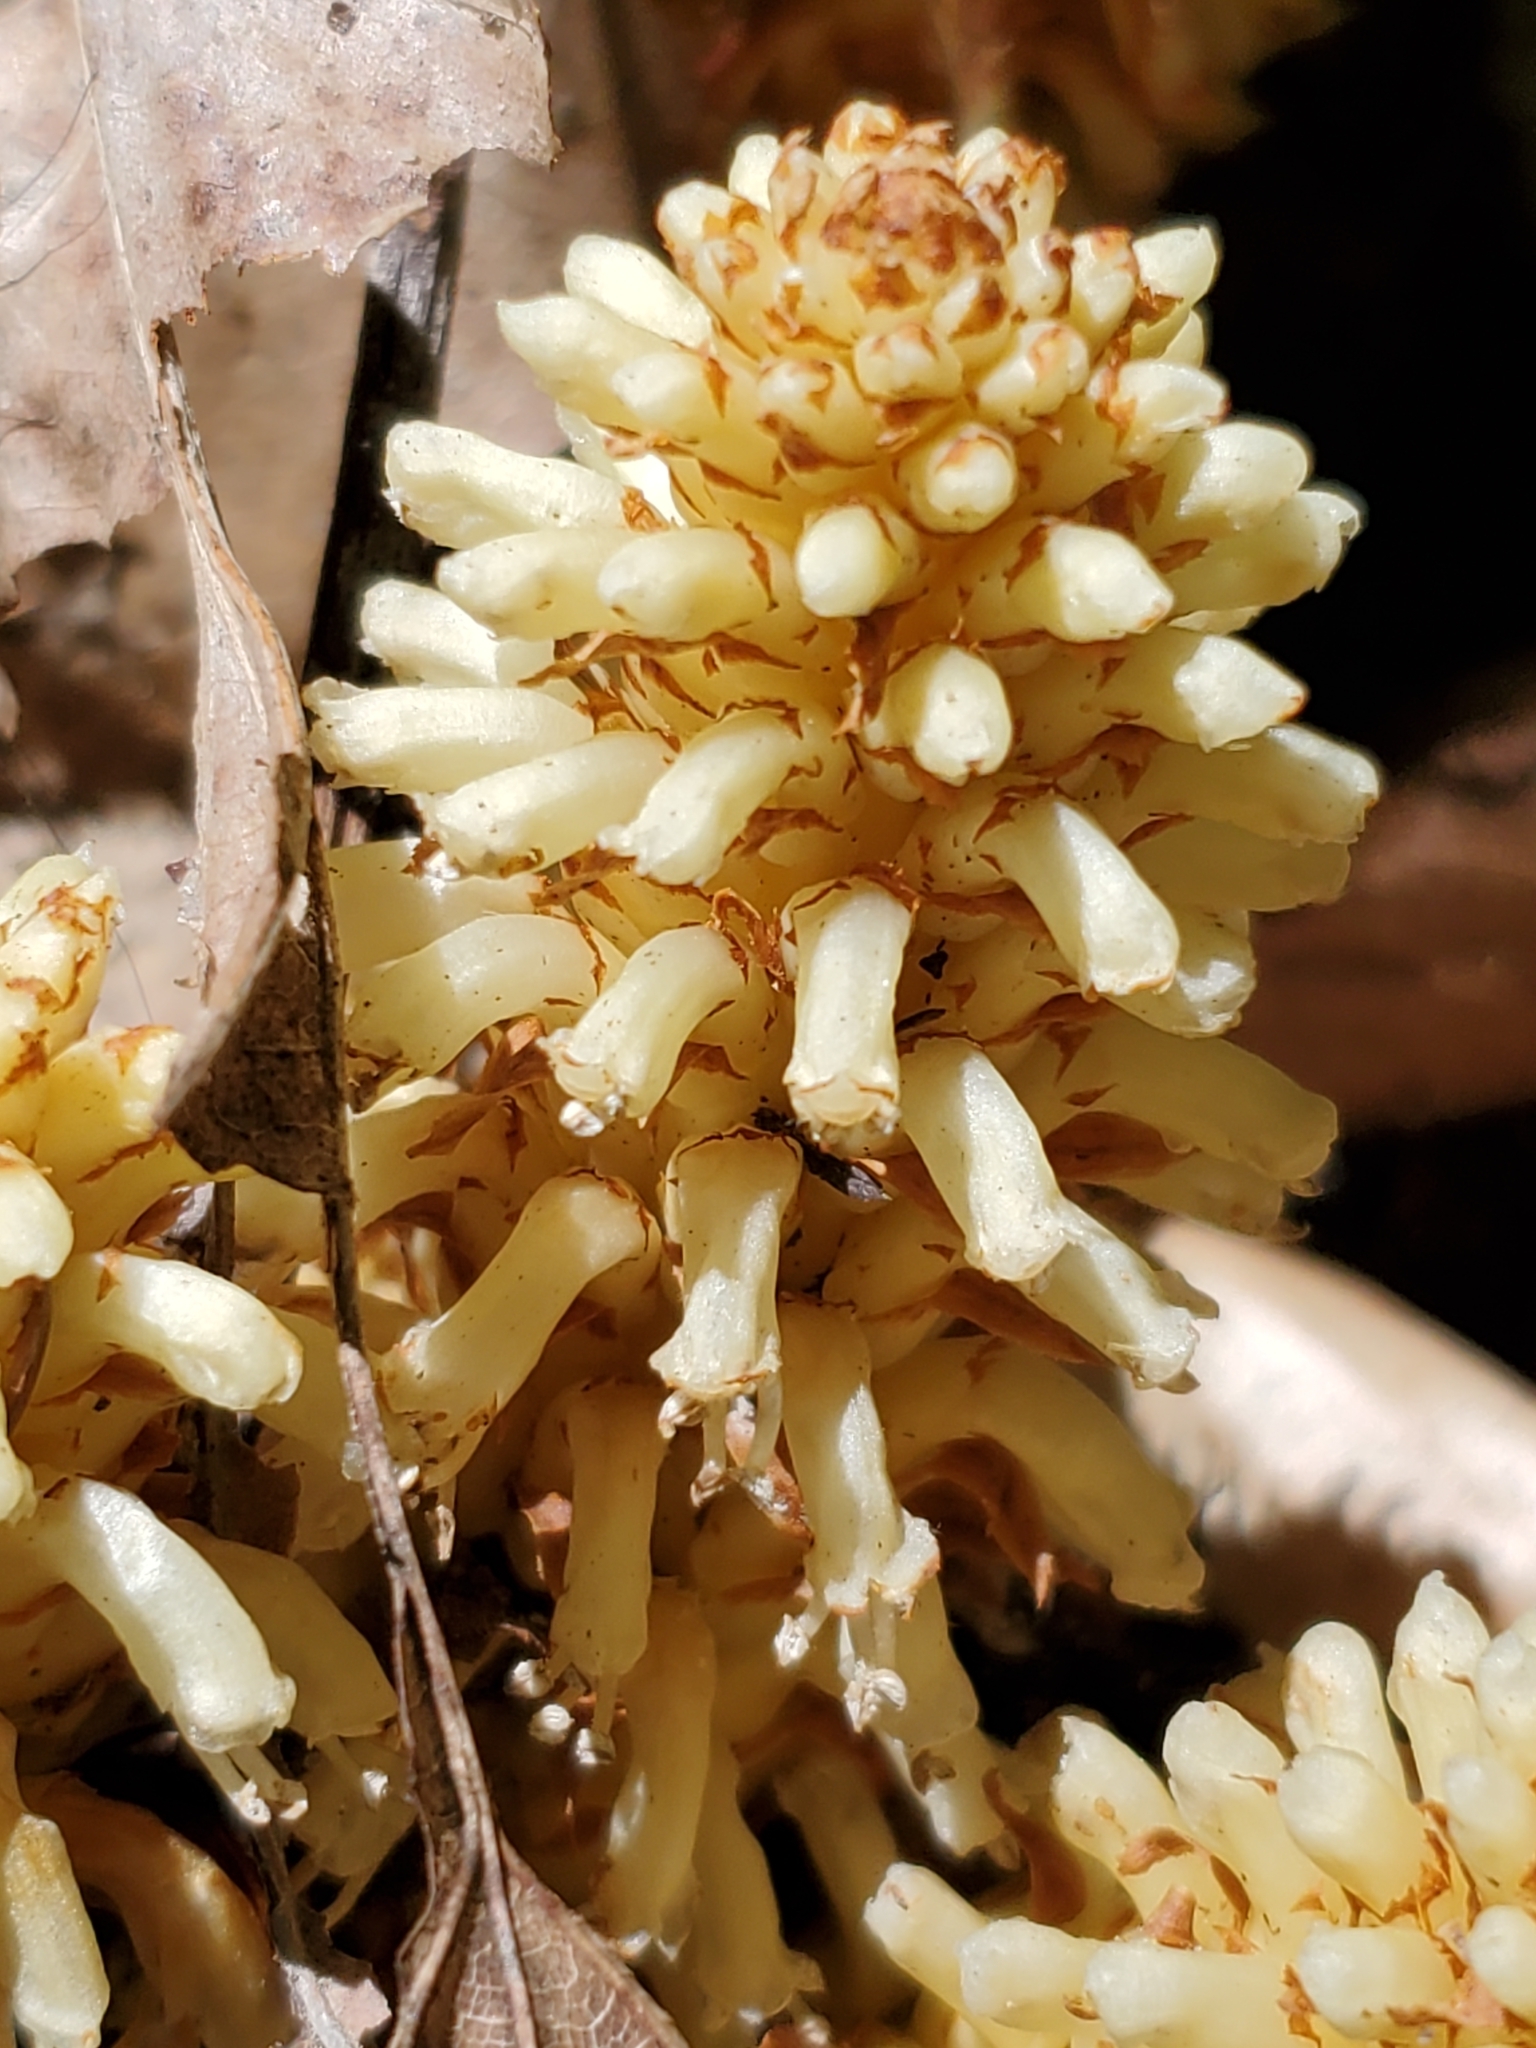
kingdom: Plantae
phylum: Tracheophyta
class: Magnoliopsida
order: Lamiales
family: Orobanchaceae
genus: Conopholis
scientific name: Conopholis americana
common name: American cancer-root
